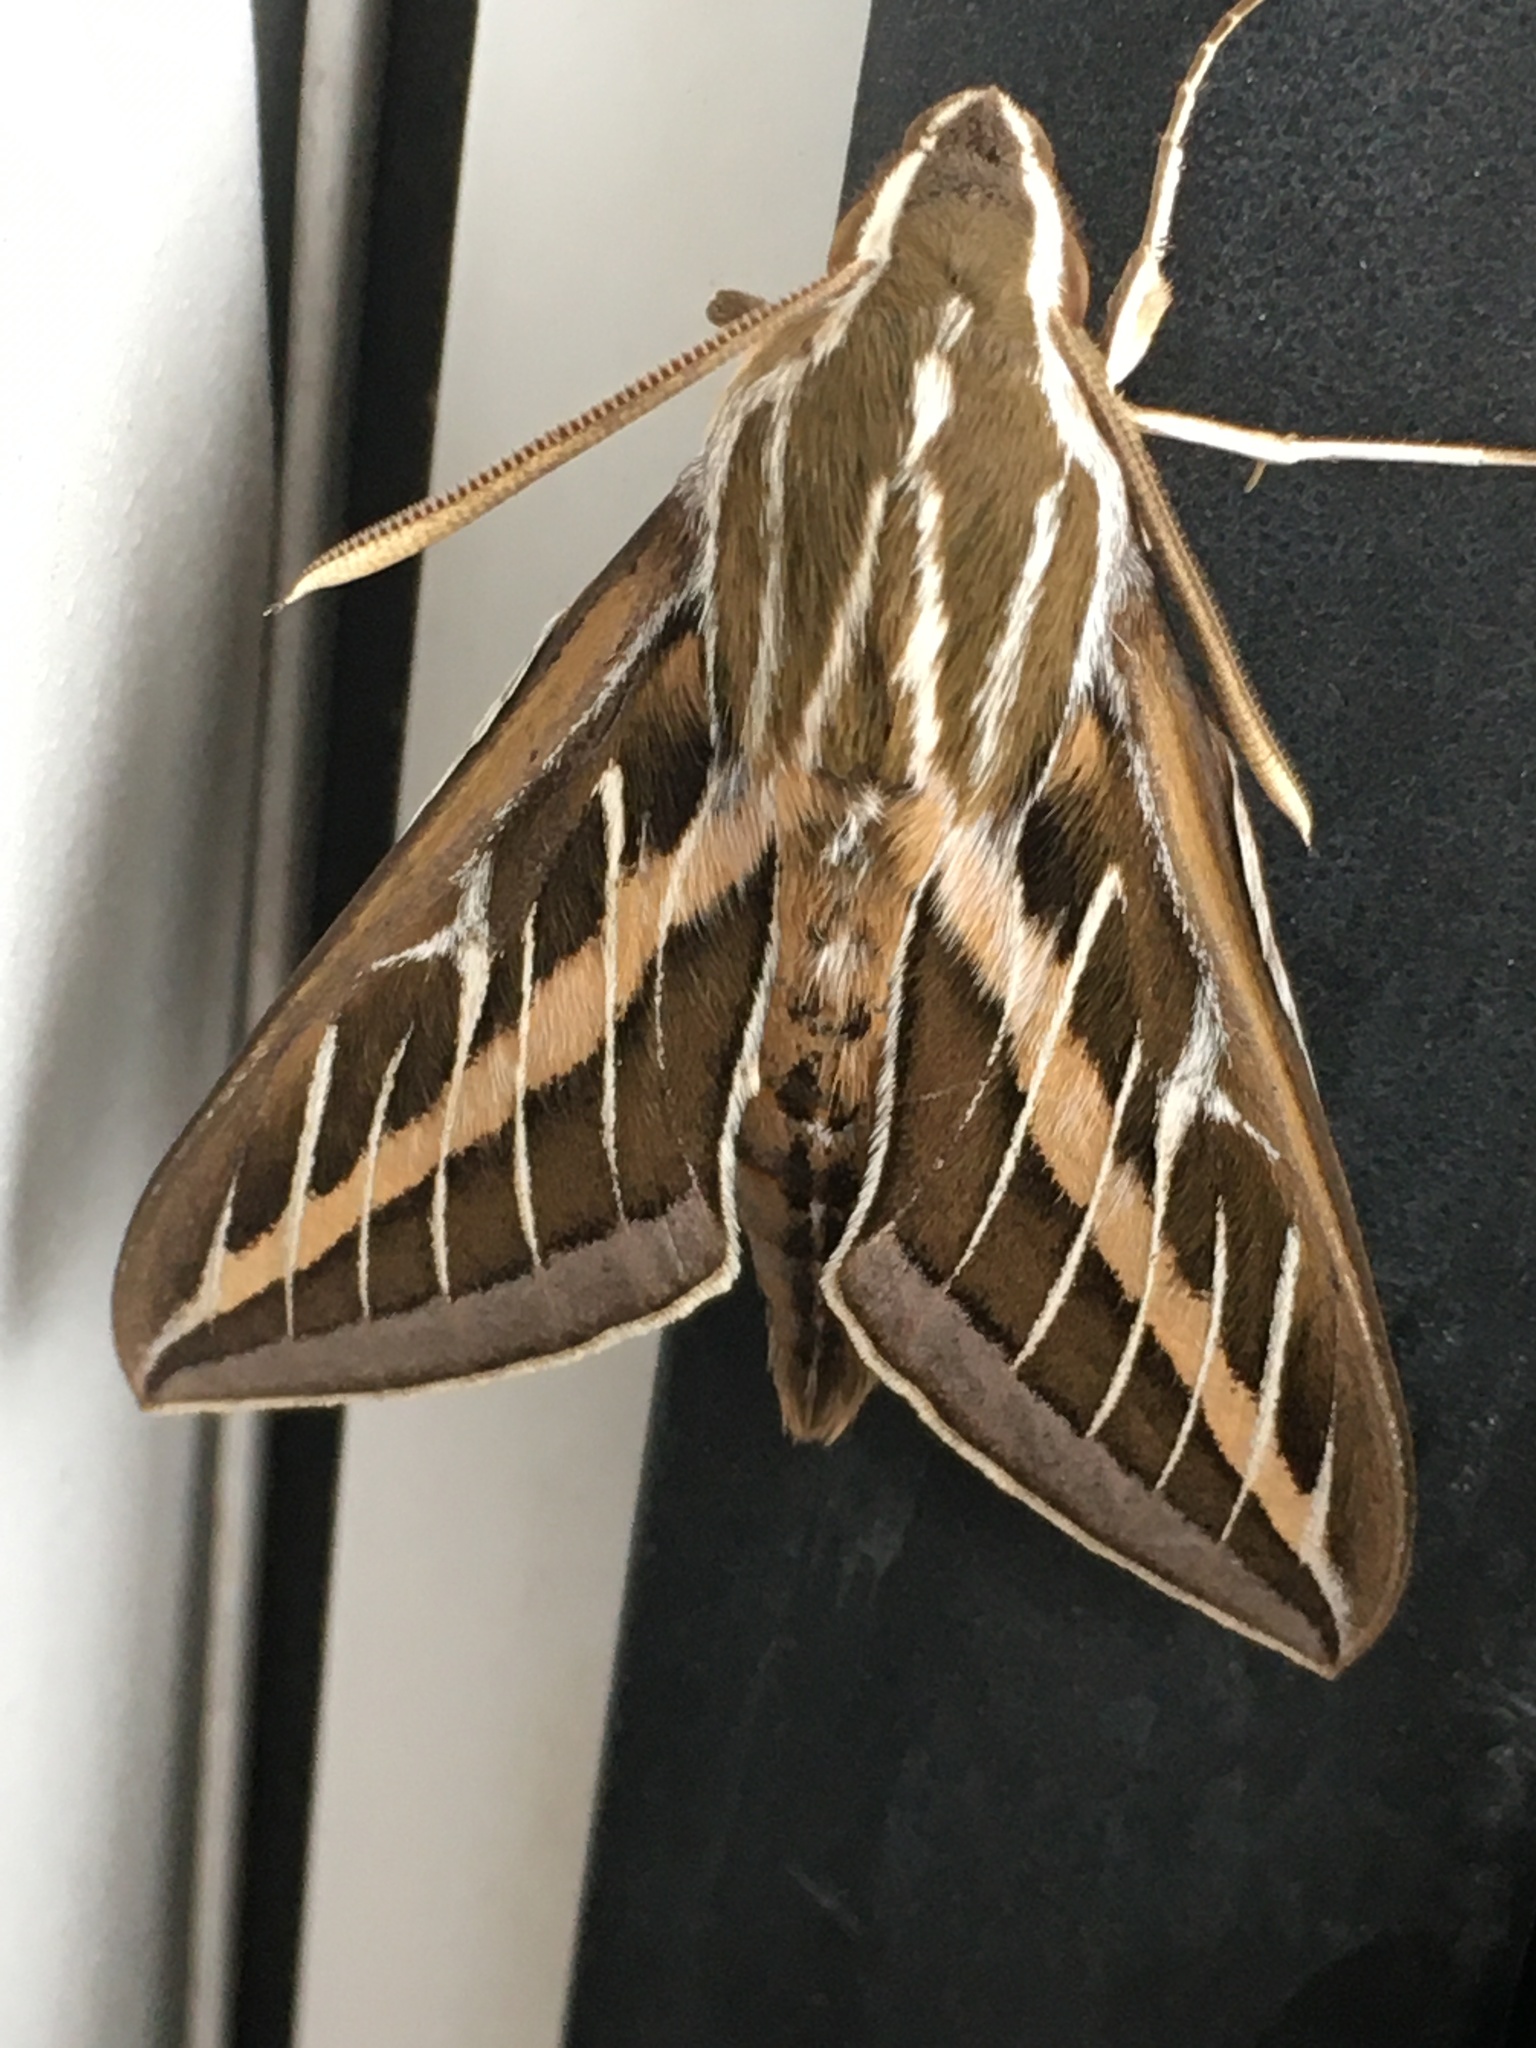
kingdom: Animalia
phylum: Arthropoda
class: Insecta
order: Lepidoptera
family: Sphingidae
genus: Hyles
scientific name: Hyles lineata
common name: White-lined sphinx
